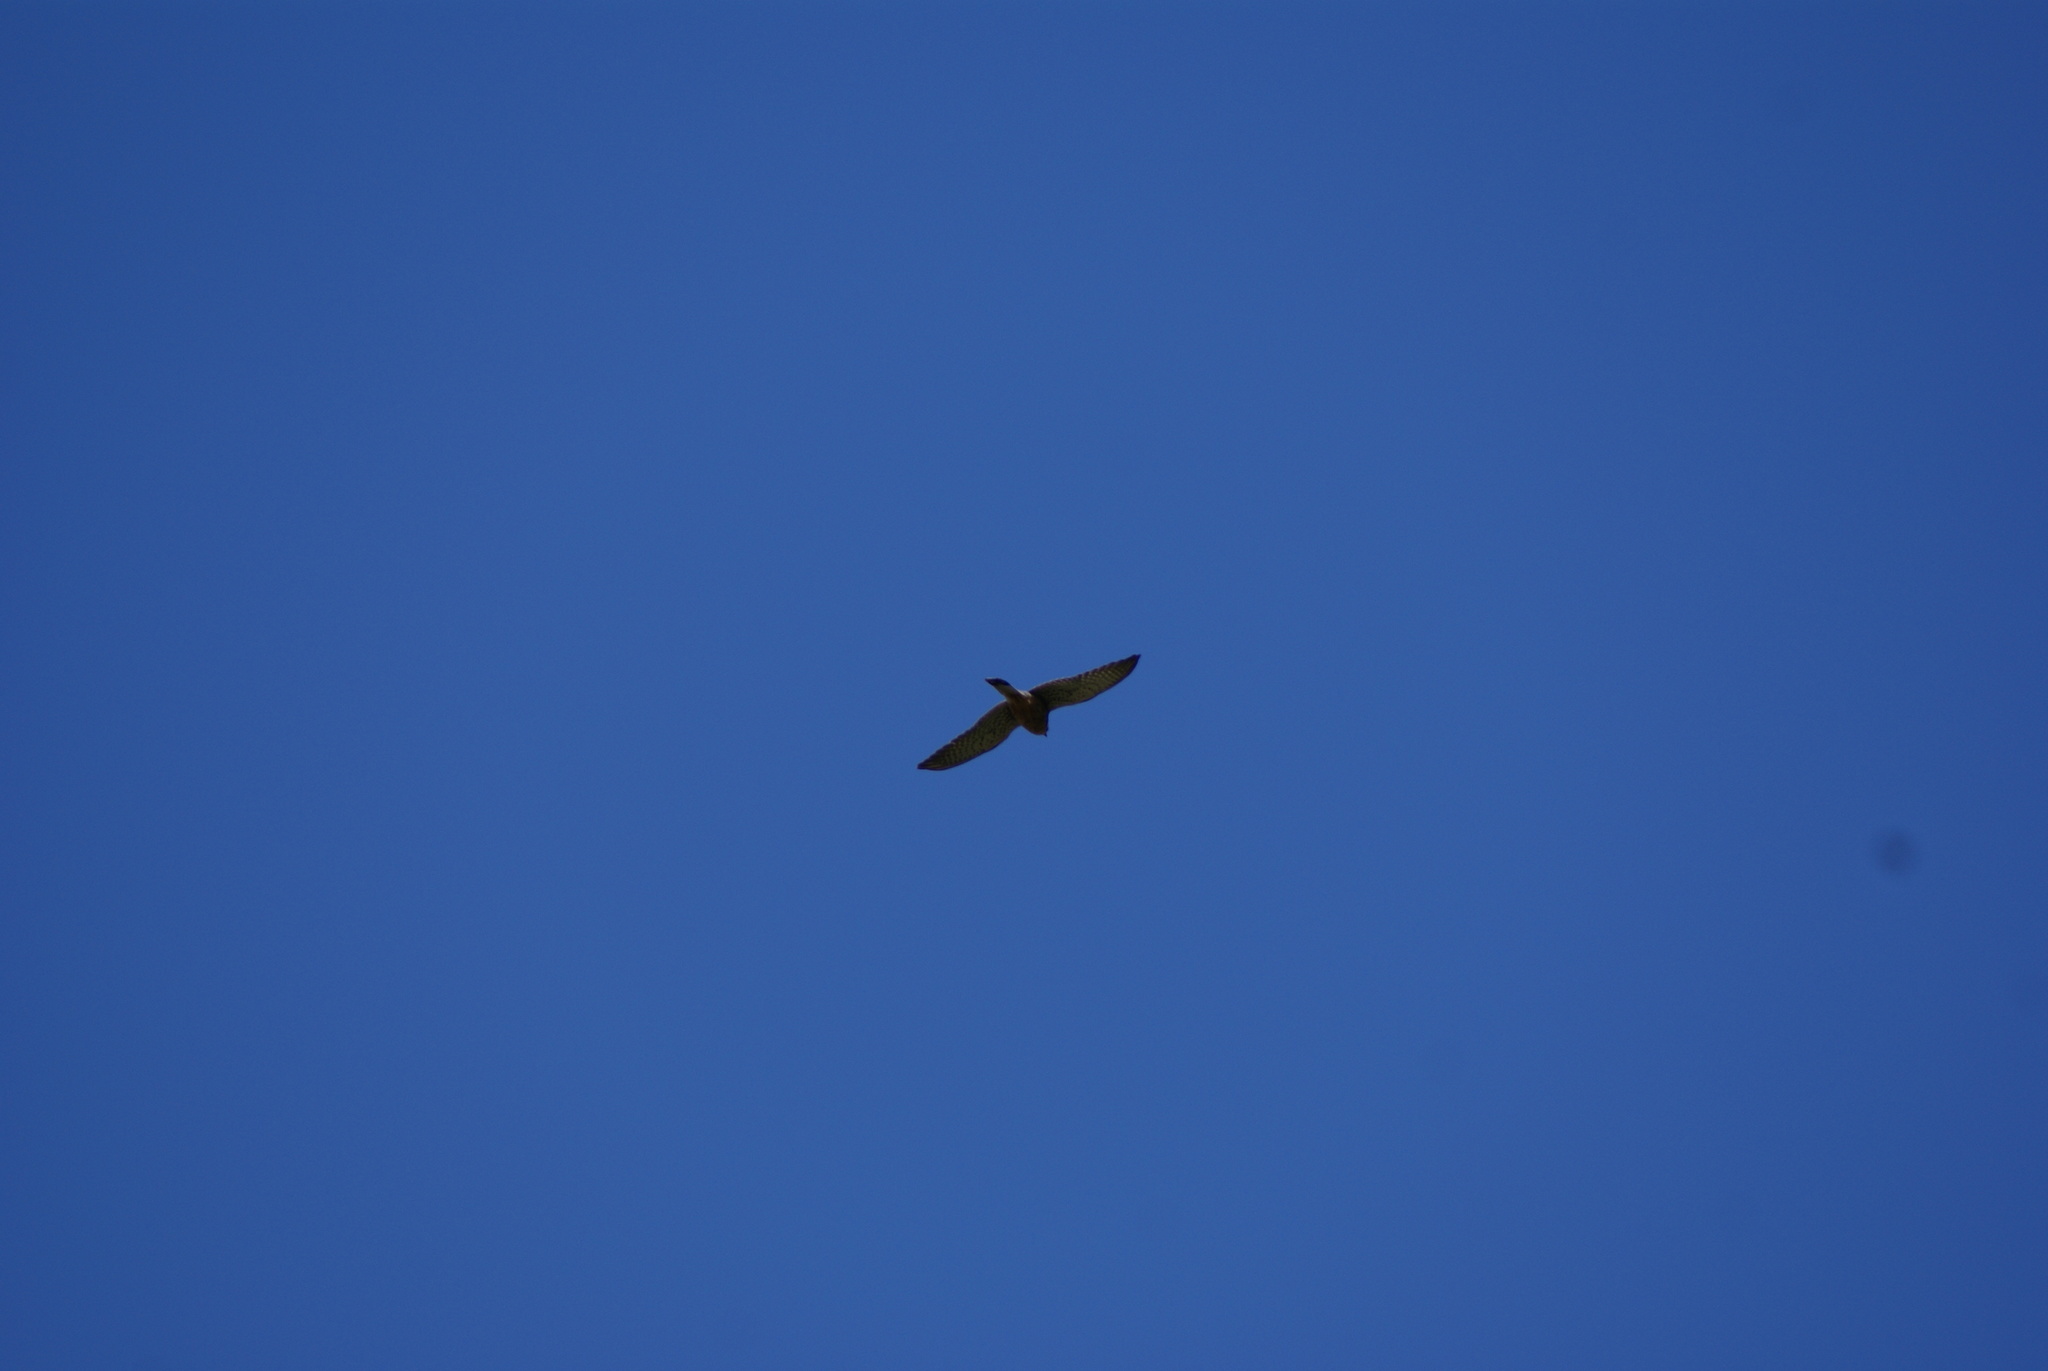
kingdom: Animalia
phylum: Chordata
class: Aves
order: Falconiformes
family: Falconidae
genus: Falco
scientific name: Falco tinnunculus
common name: Common kestrel
